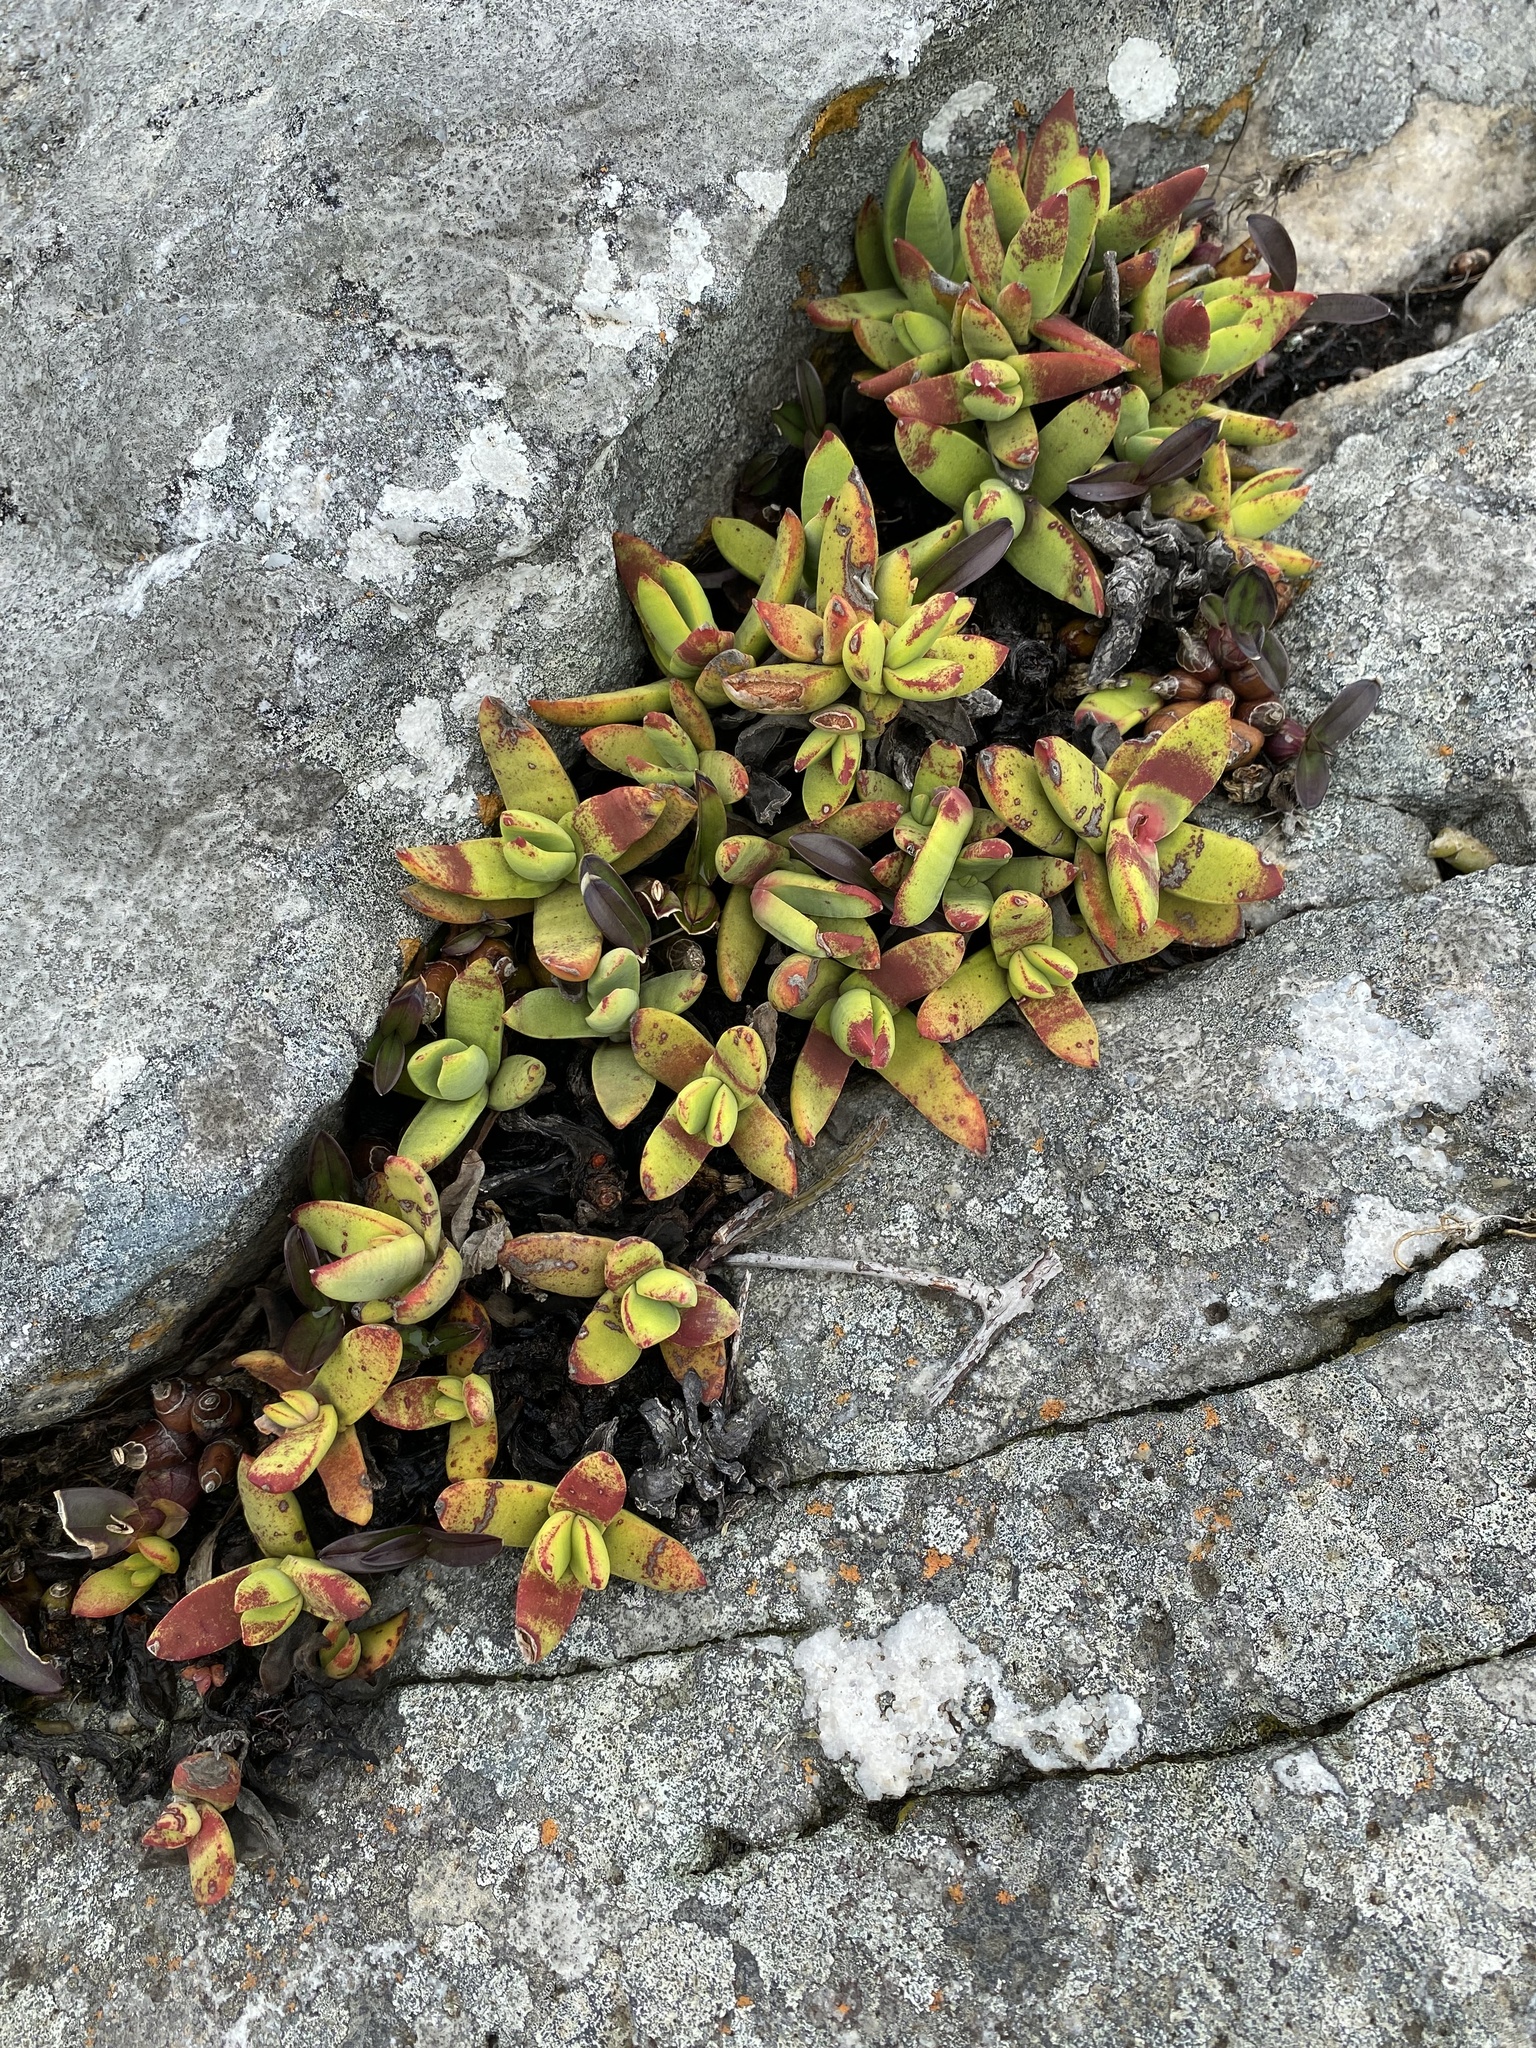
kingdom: Plantae
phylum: Tracheophyta
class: Magnoliopsida
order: Saxifragales
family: Crassulaceae
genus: Crassula
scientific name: Crassula perfoliata
